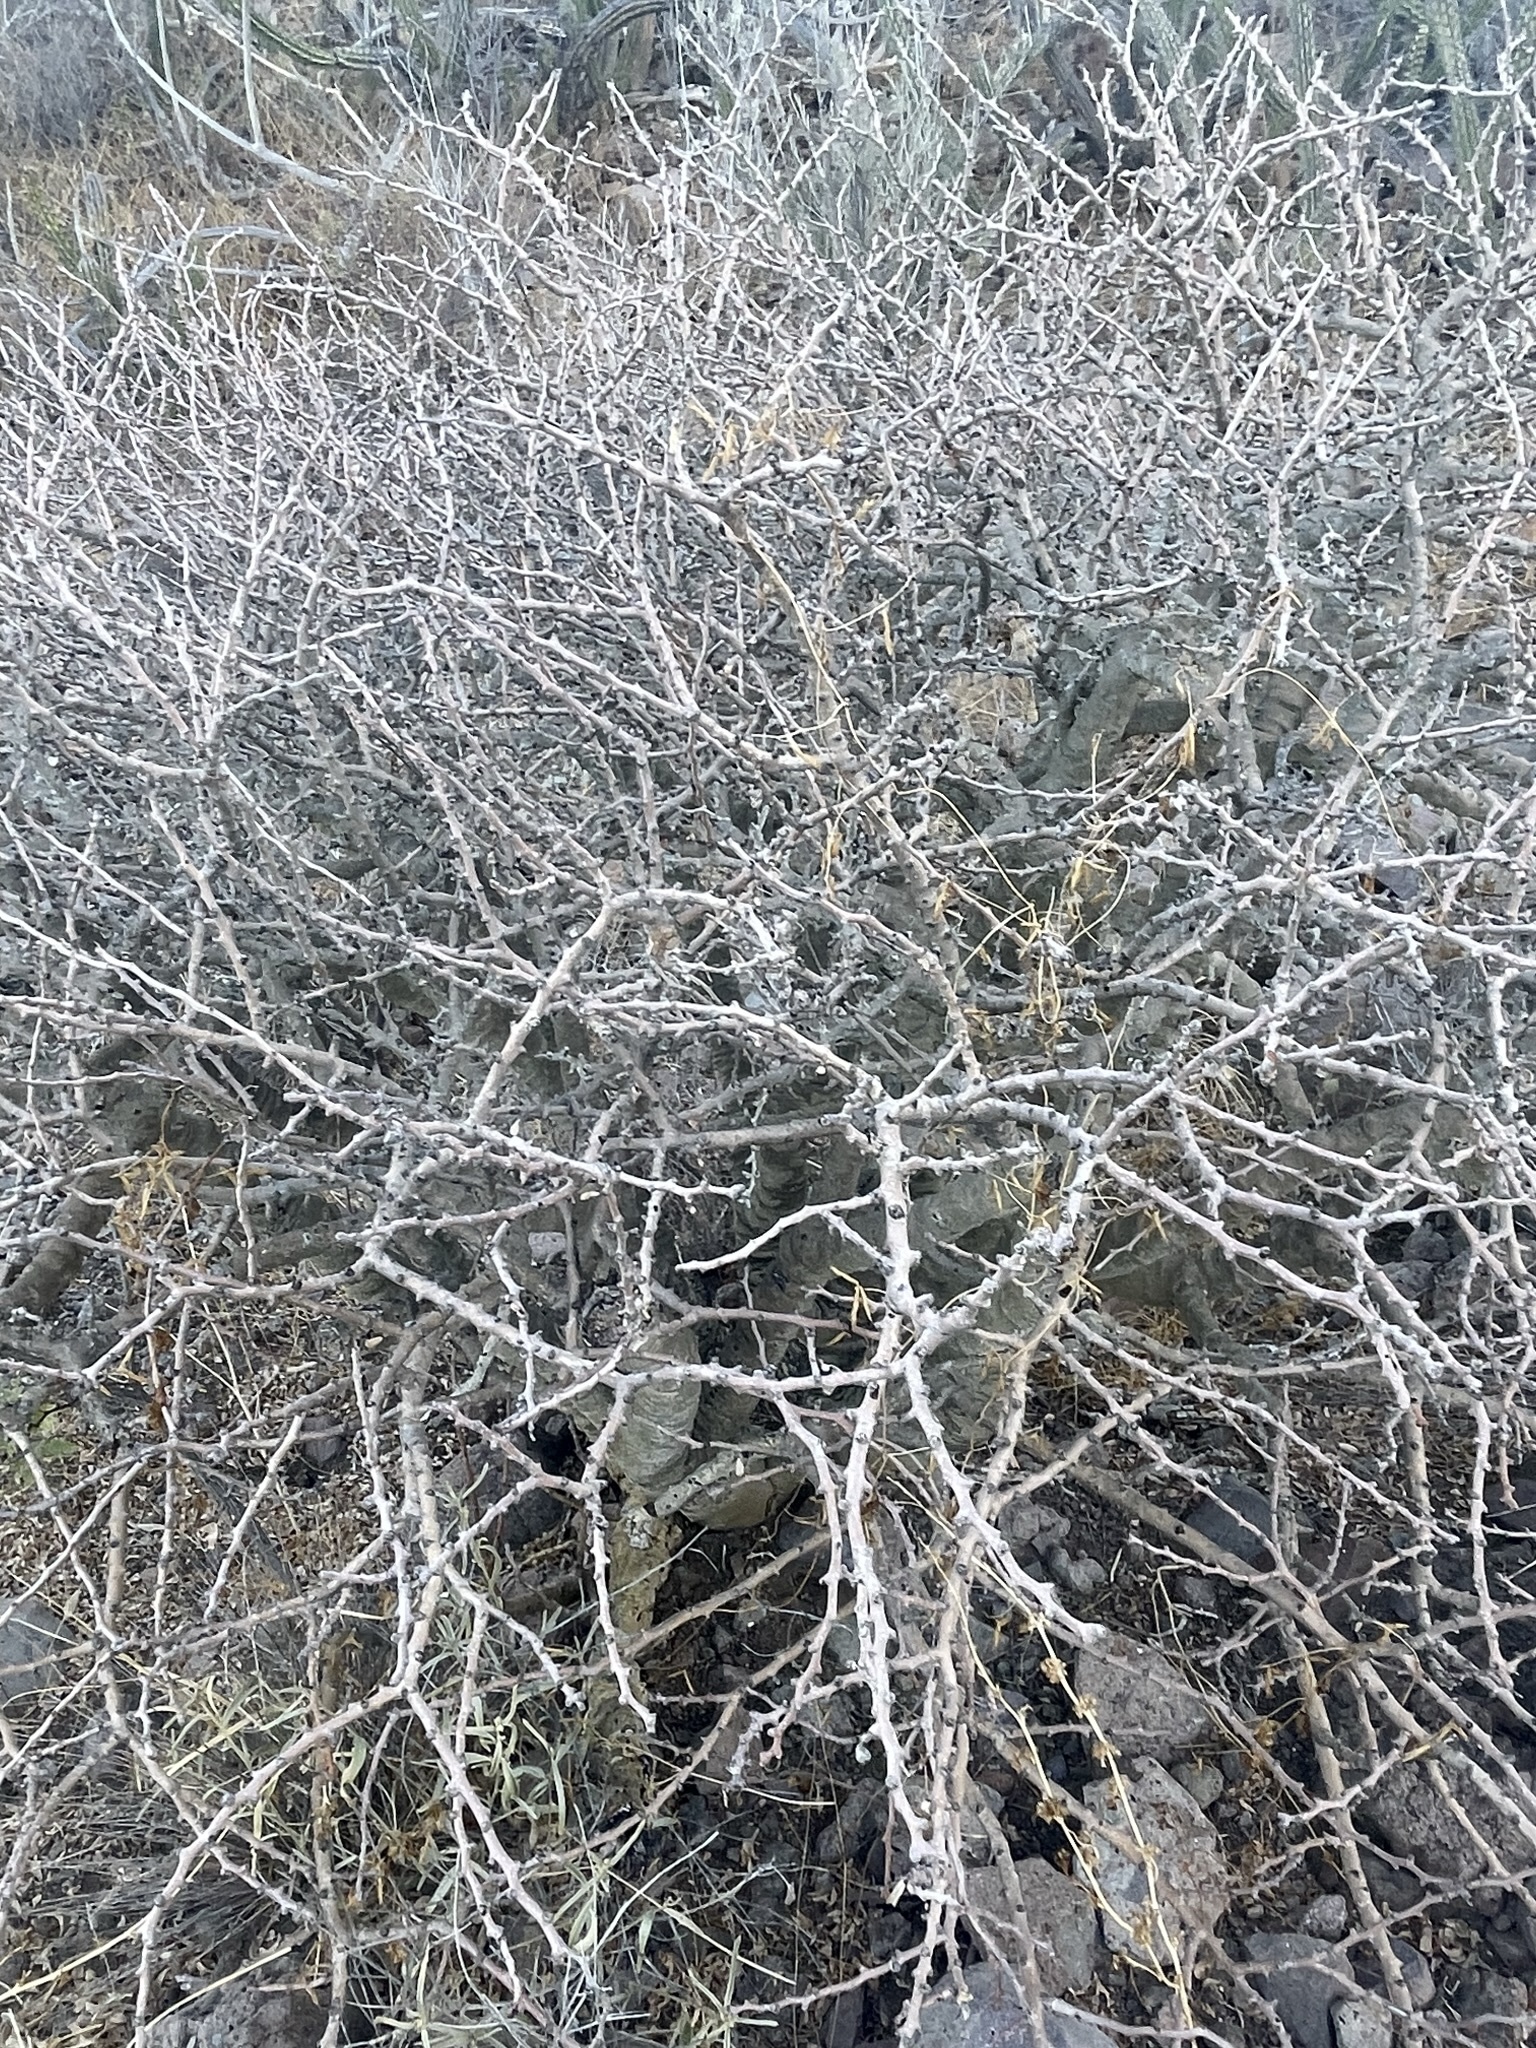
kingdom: Plantae
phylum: Tracheophyta
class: Magnoliopsida
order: Malpighiales
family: Euphorbiaceae
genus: Jatropha
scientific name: Jatropha cuneata
